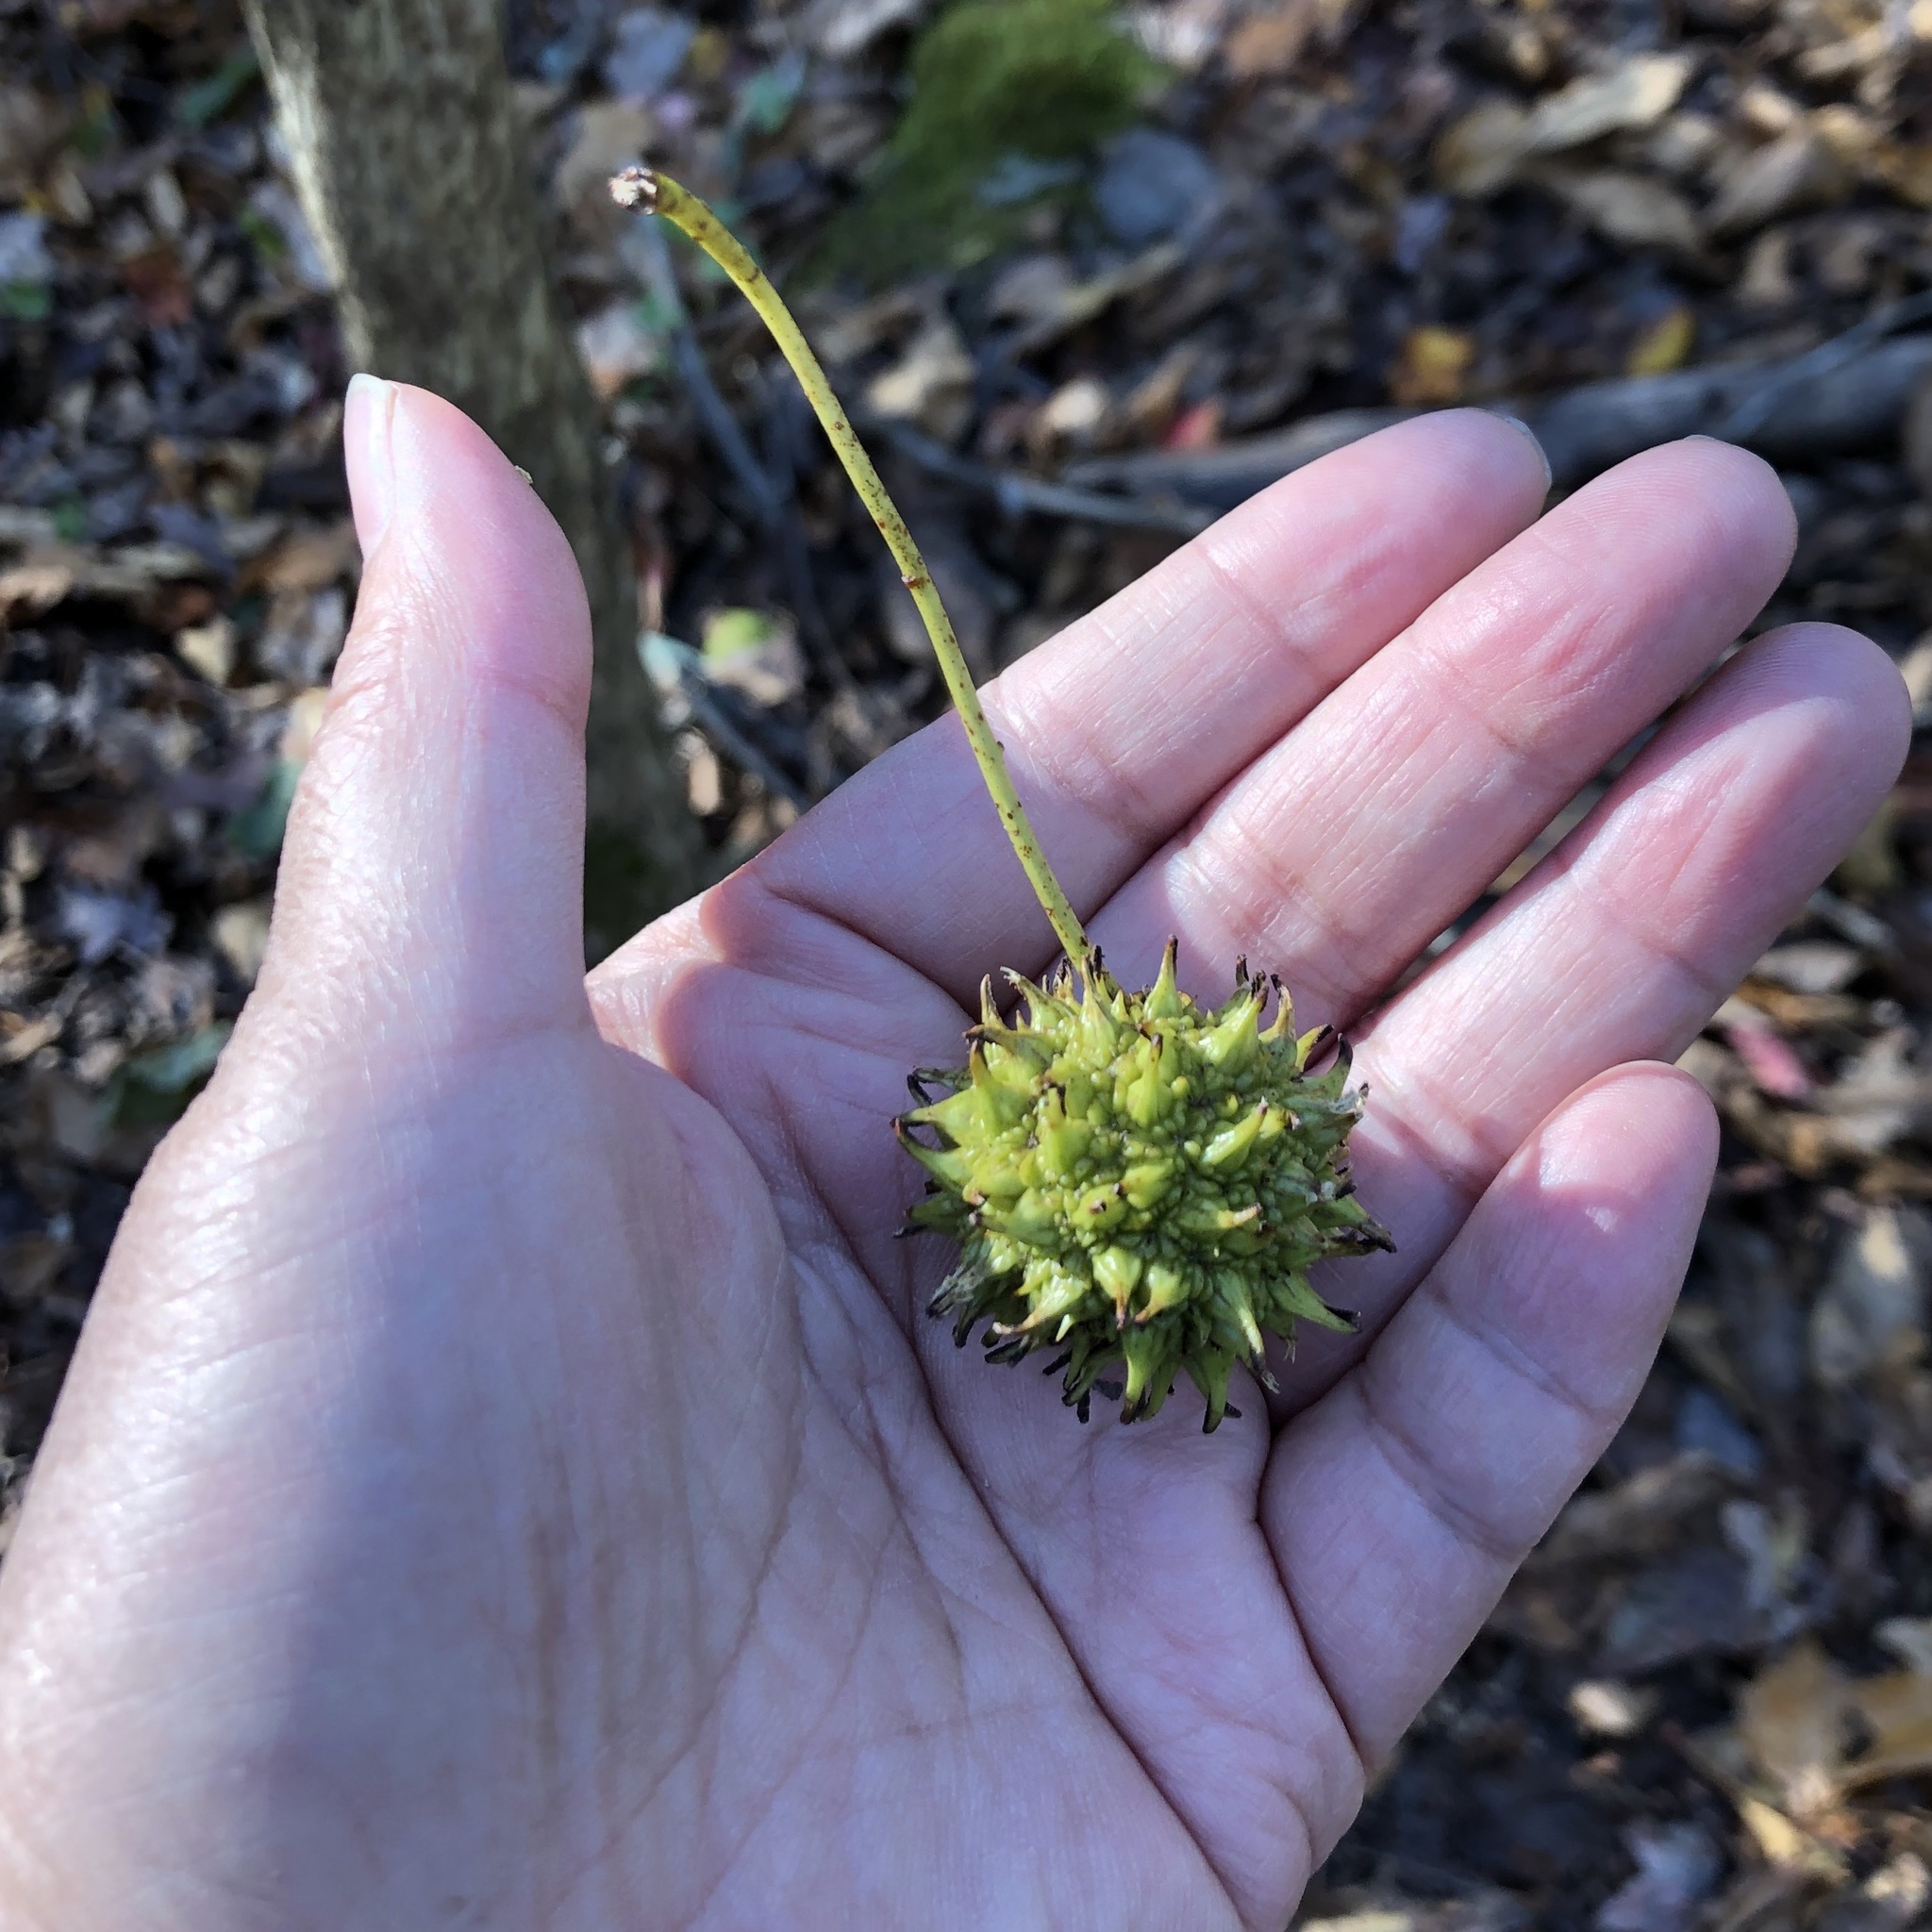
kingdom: Plantae
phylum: Tracheophyta
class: Magnoliopsida
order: Saxifragales
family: Altingiaceae
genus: Liquidambar
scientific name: Liquidambar styraciflua
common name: Sweet gum
